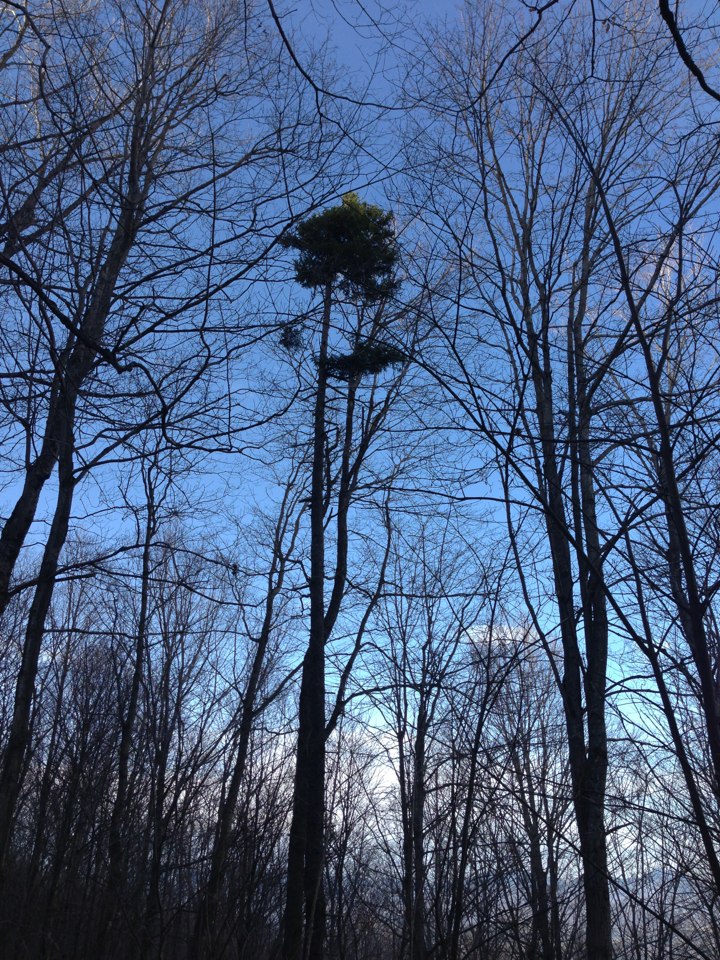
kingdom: Plantae
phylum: Tracheophyta
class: Pinopsida
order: Pinales
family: Pinaceae
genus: Picea
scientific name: Picea rubens
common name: Red spruce
